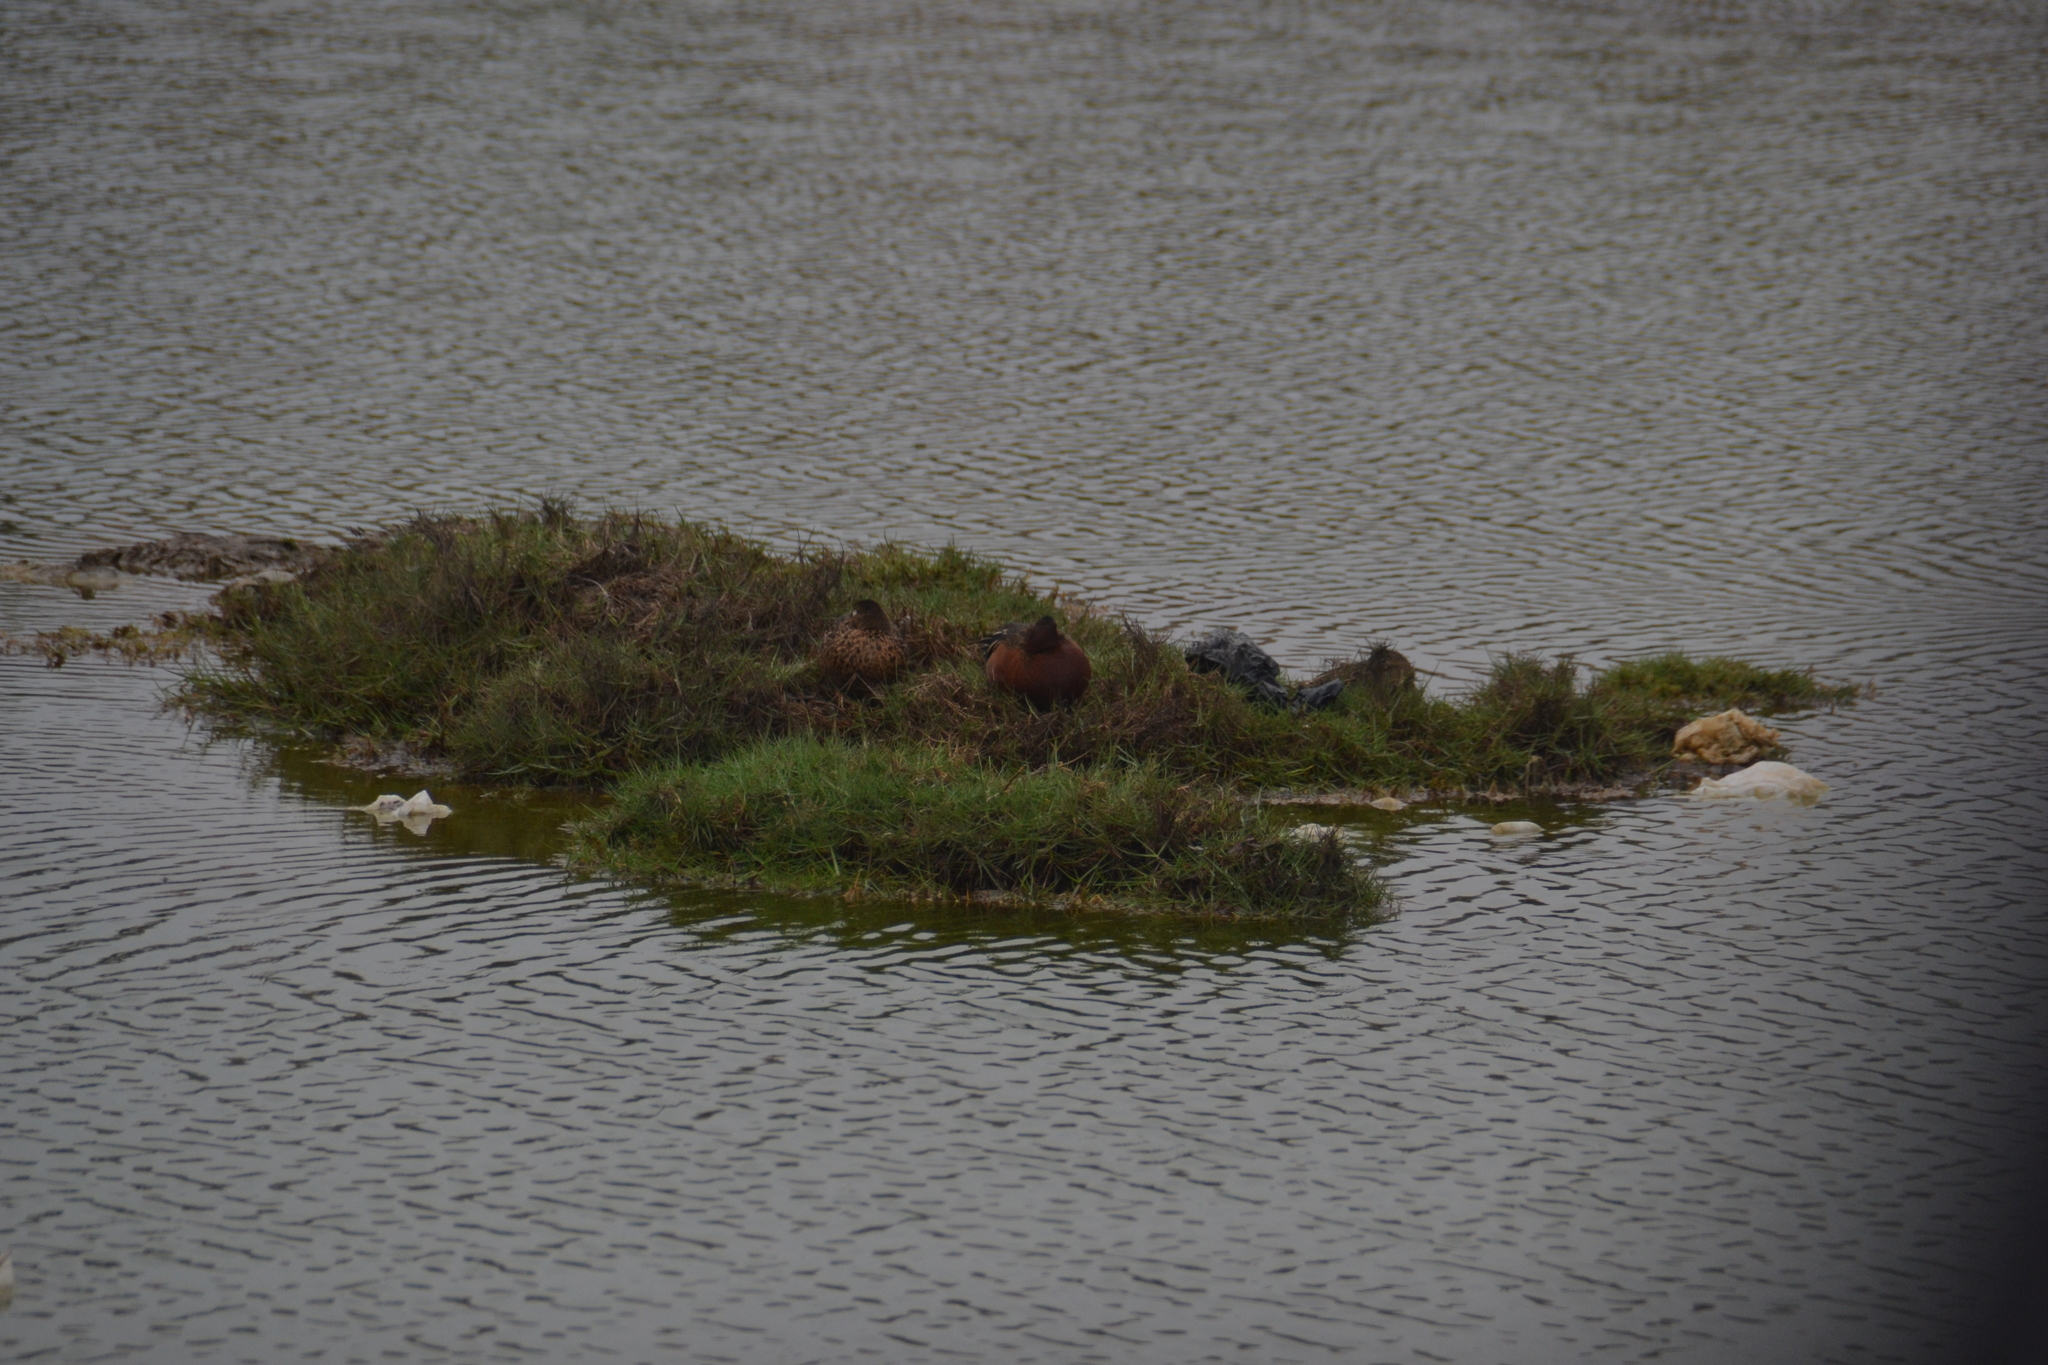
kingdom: Animalia
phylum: Chordata
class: Aves
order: Anseriformes
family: Anatidae
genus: Spatula
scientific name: Spatula cyanoptera
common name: Cinnamon teal
